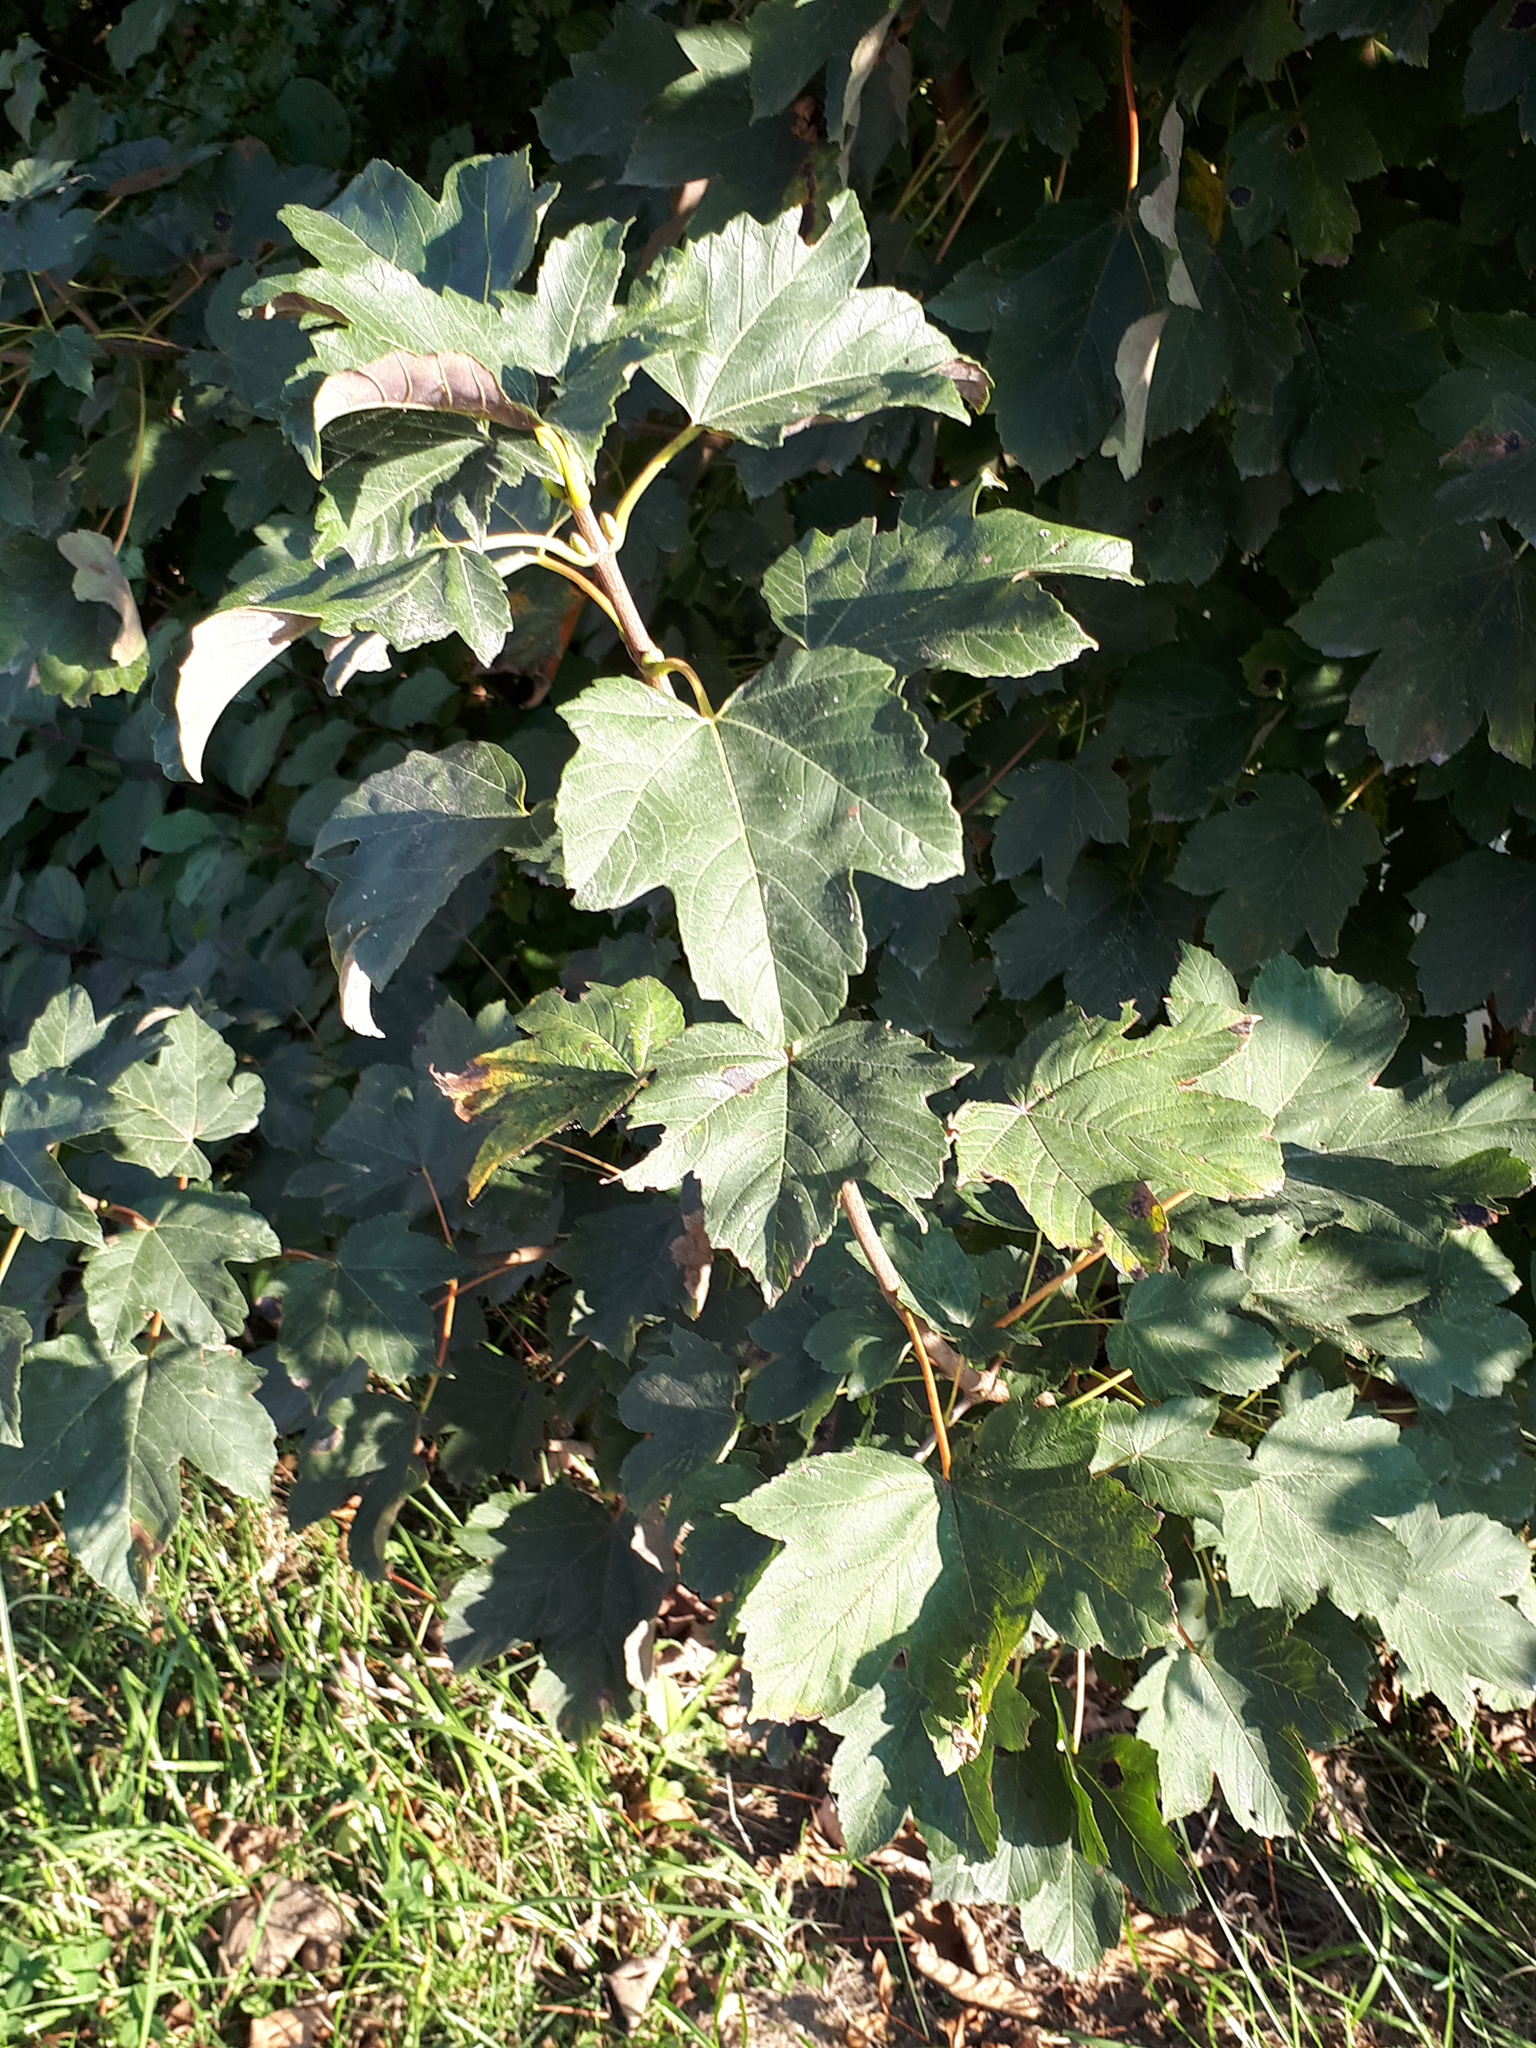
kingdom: Plantae
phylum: Tracheophyta
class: Magnoliopsida
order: Sapindales
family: Sapindaceae
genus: Acer
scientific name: Acer pseudoplatanus
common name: Sycamore
